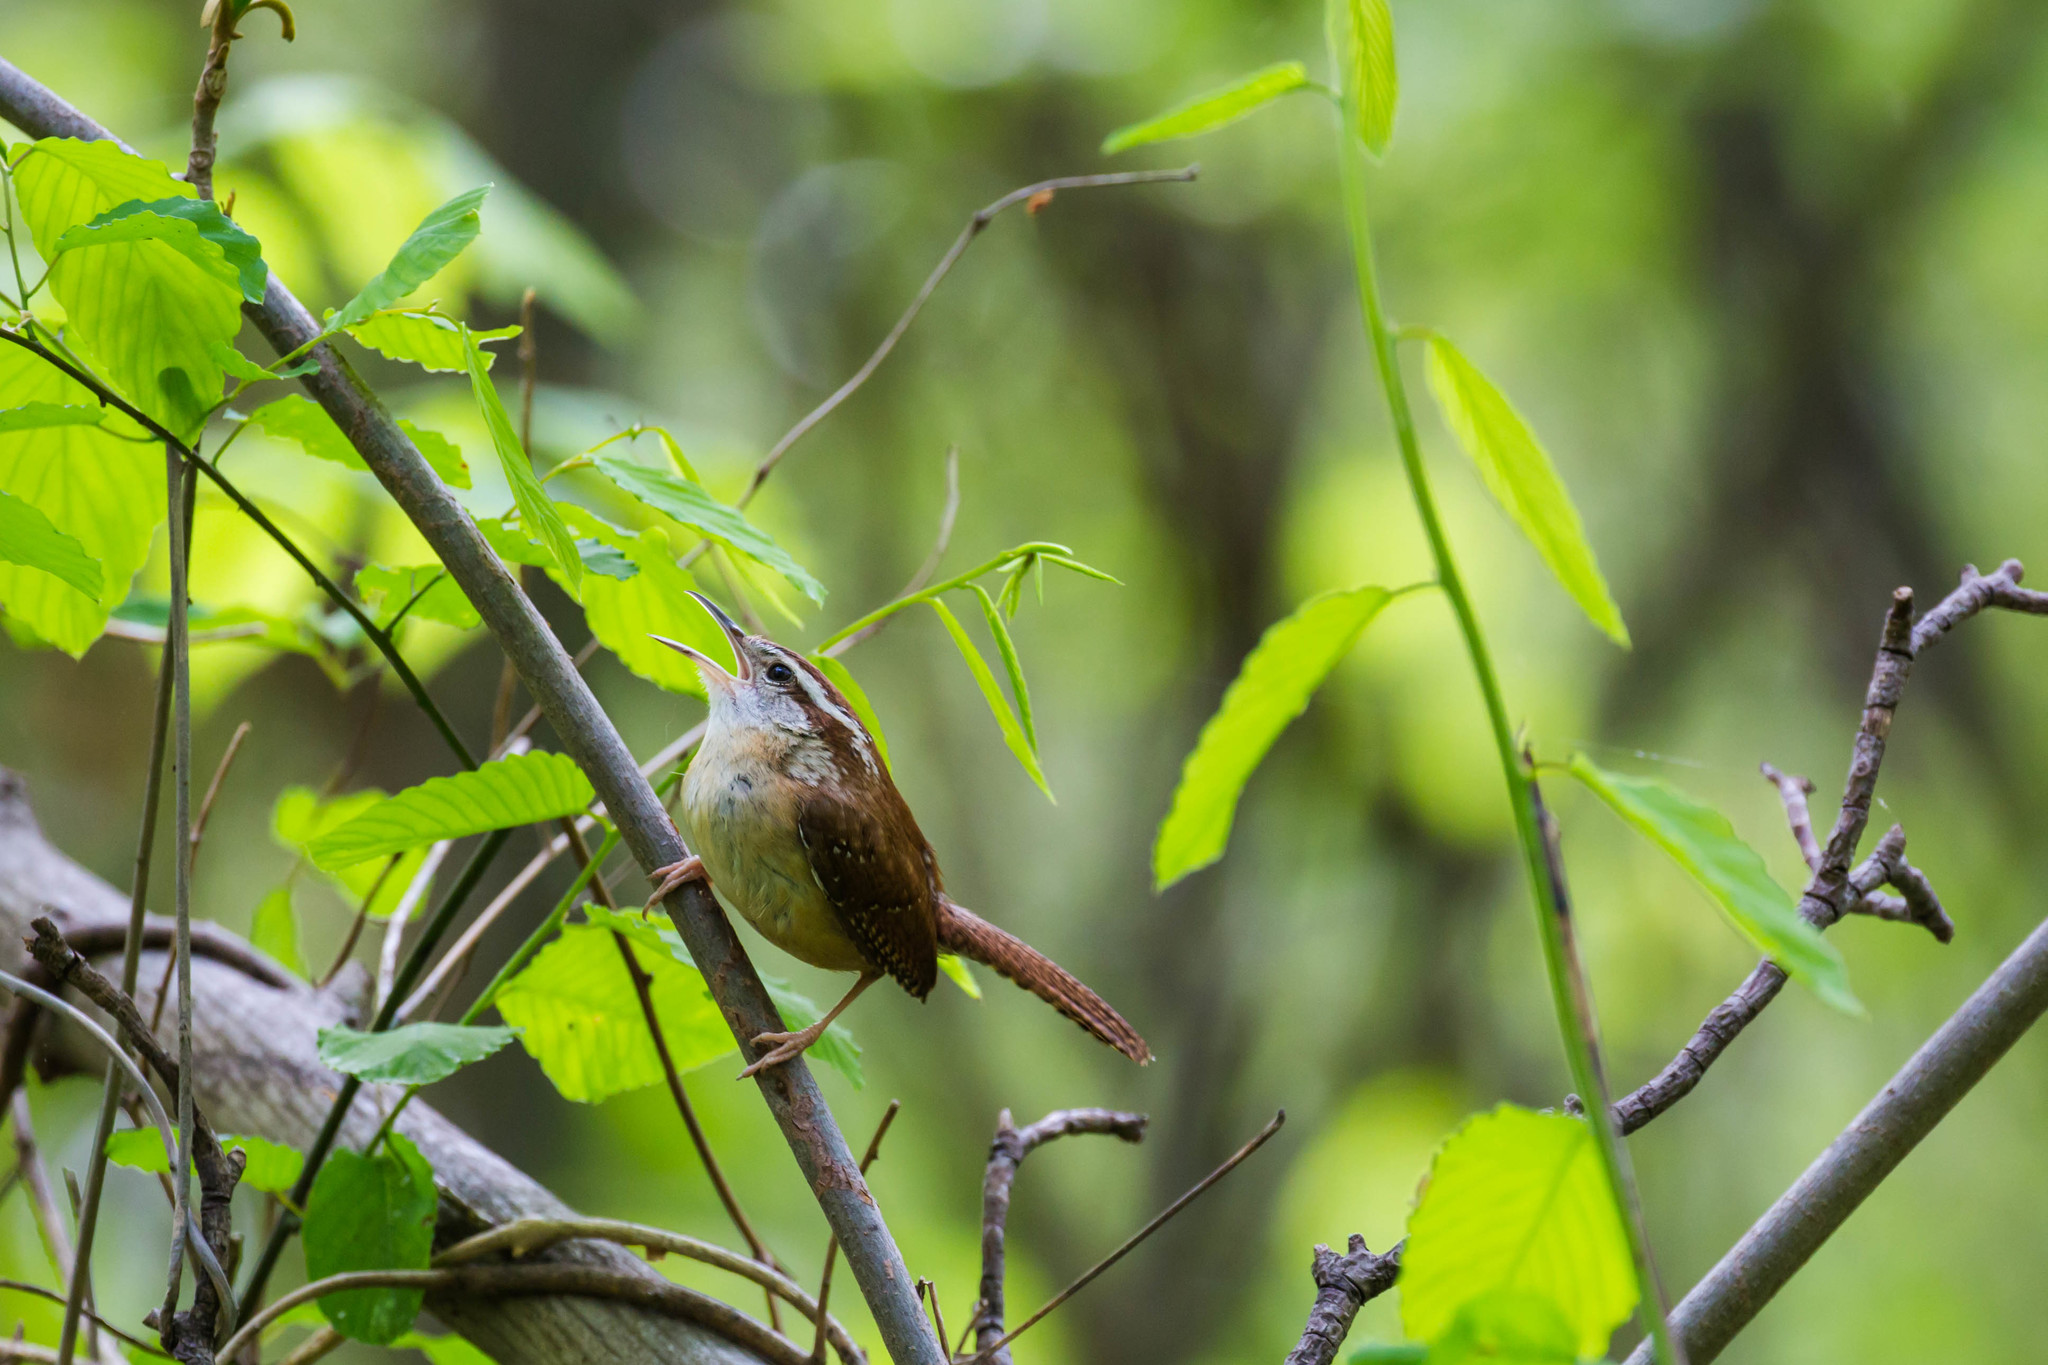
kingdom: Animalia
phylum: Chordata
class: Aves
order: Passeriformes
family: Troglodytidae
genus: Thryothorus
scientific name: Thryothorus ludovicianus
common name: Carolina wren
